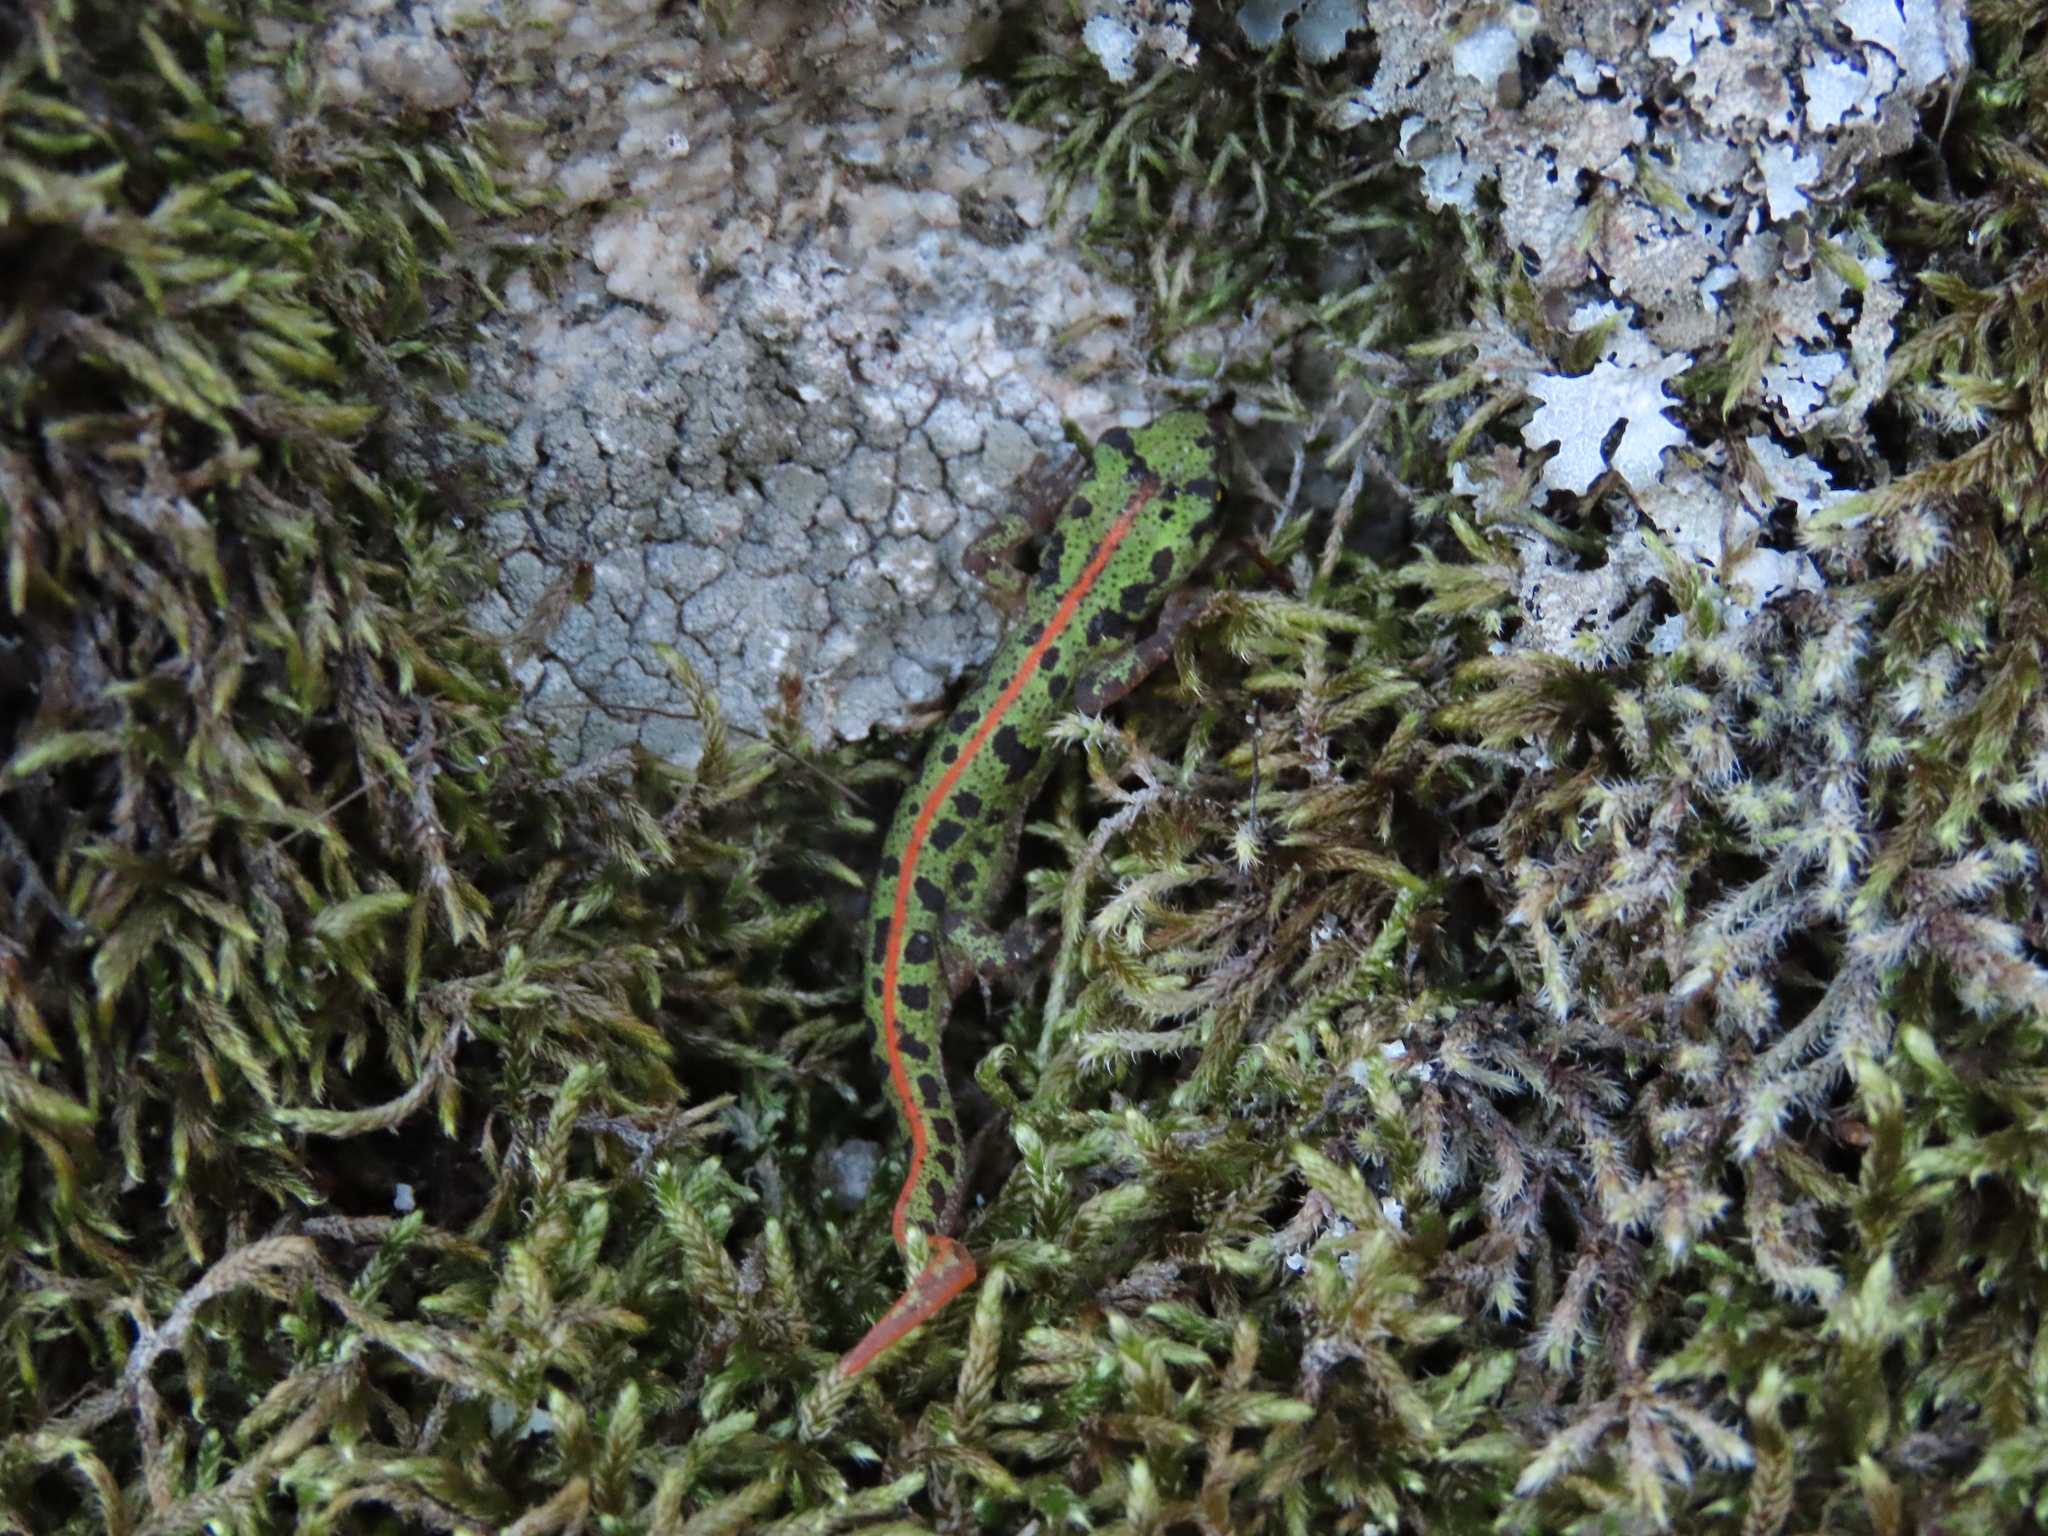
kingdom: Animalia
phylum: Chordata
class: Amphibia
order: Caudata
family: Salamandridae
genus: Triturus
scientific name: Triturus pygmaeus
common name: Southern marbled newt
